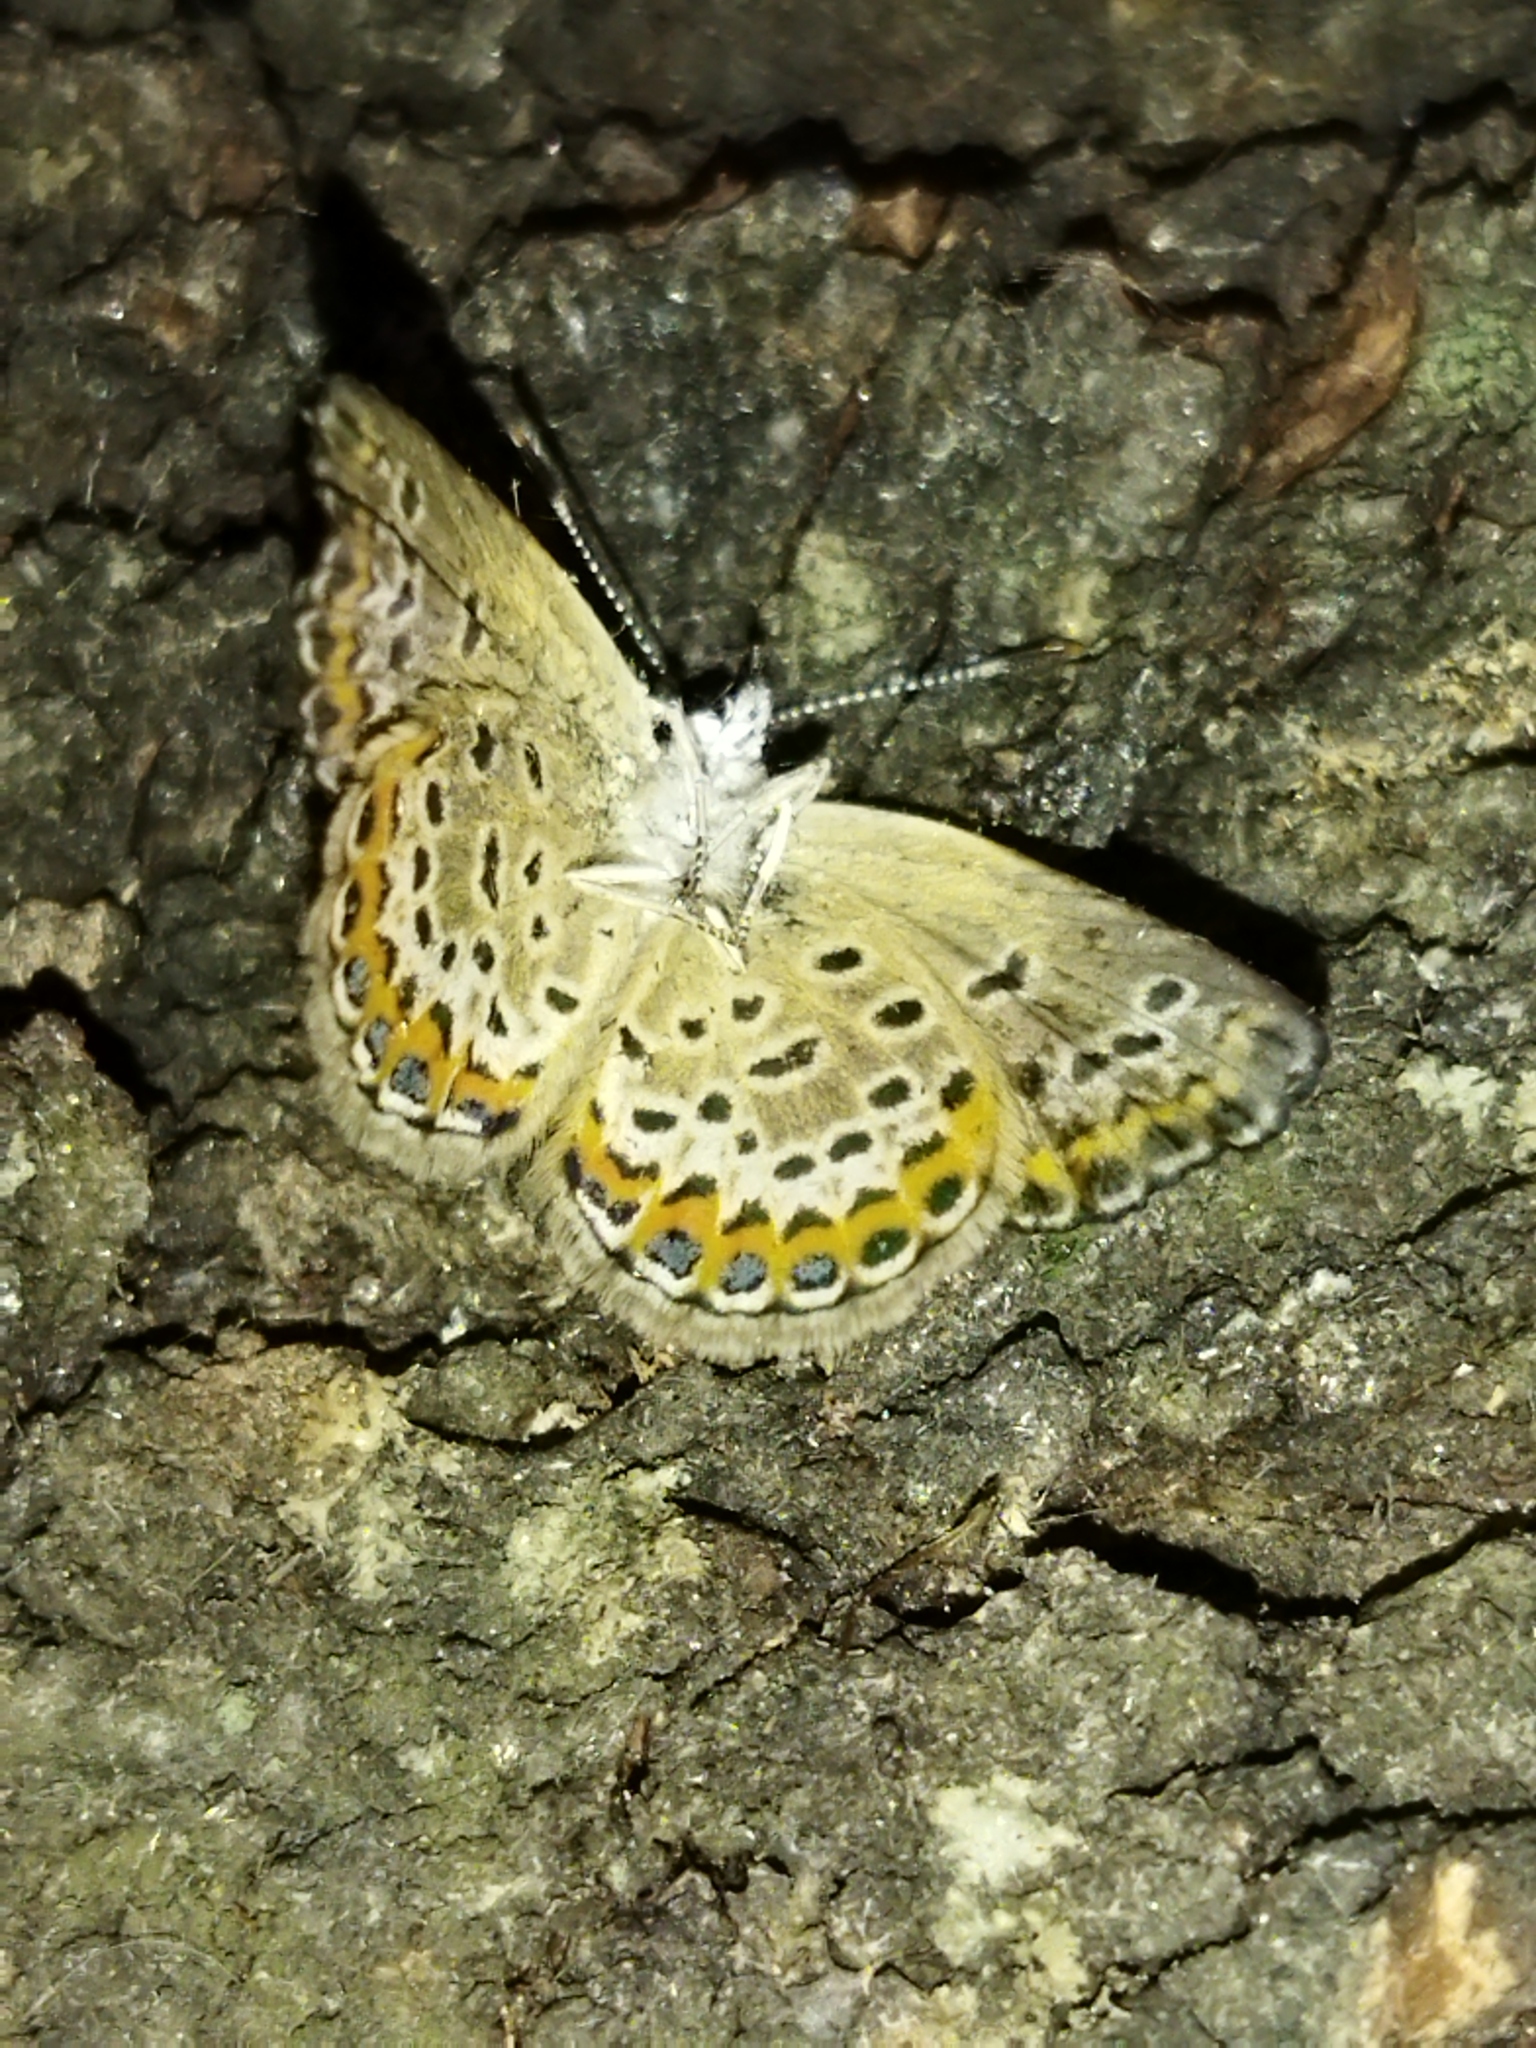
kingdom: Animalia
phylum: Arthropoda
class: Insecta
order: Lepidoptera
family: Lycaenidae
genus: Plebejus
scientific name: Plebejus argus
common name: Silver-studded blue
